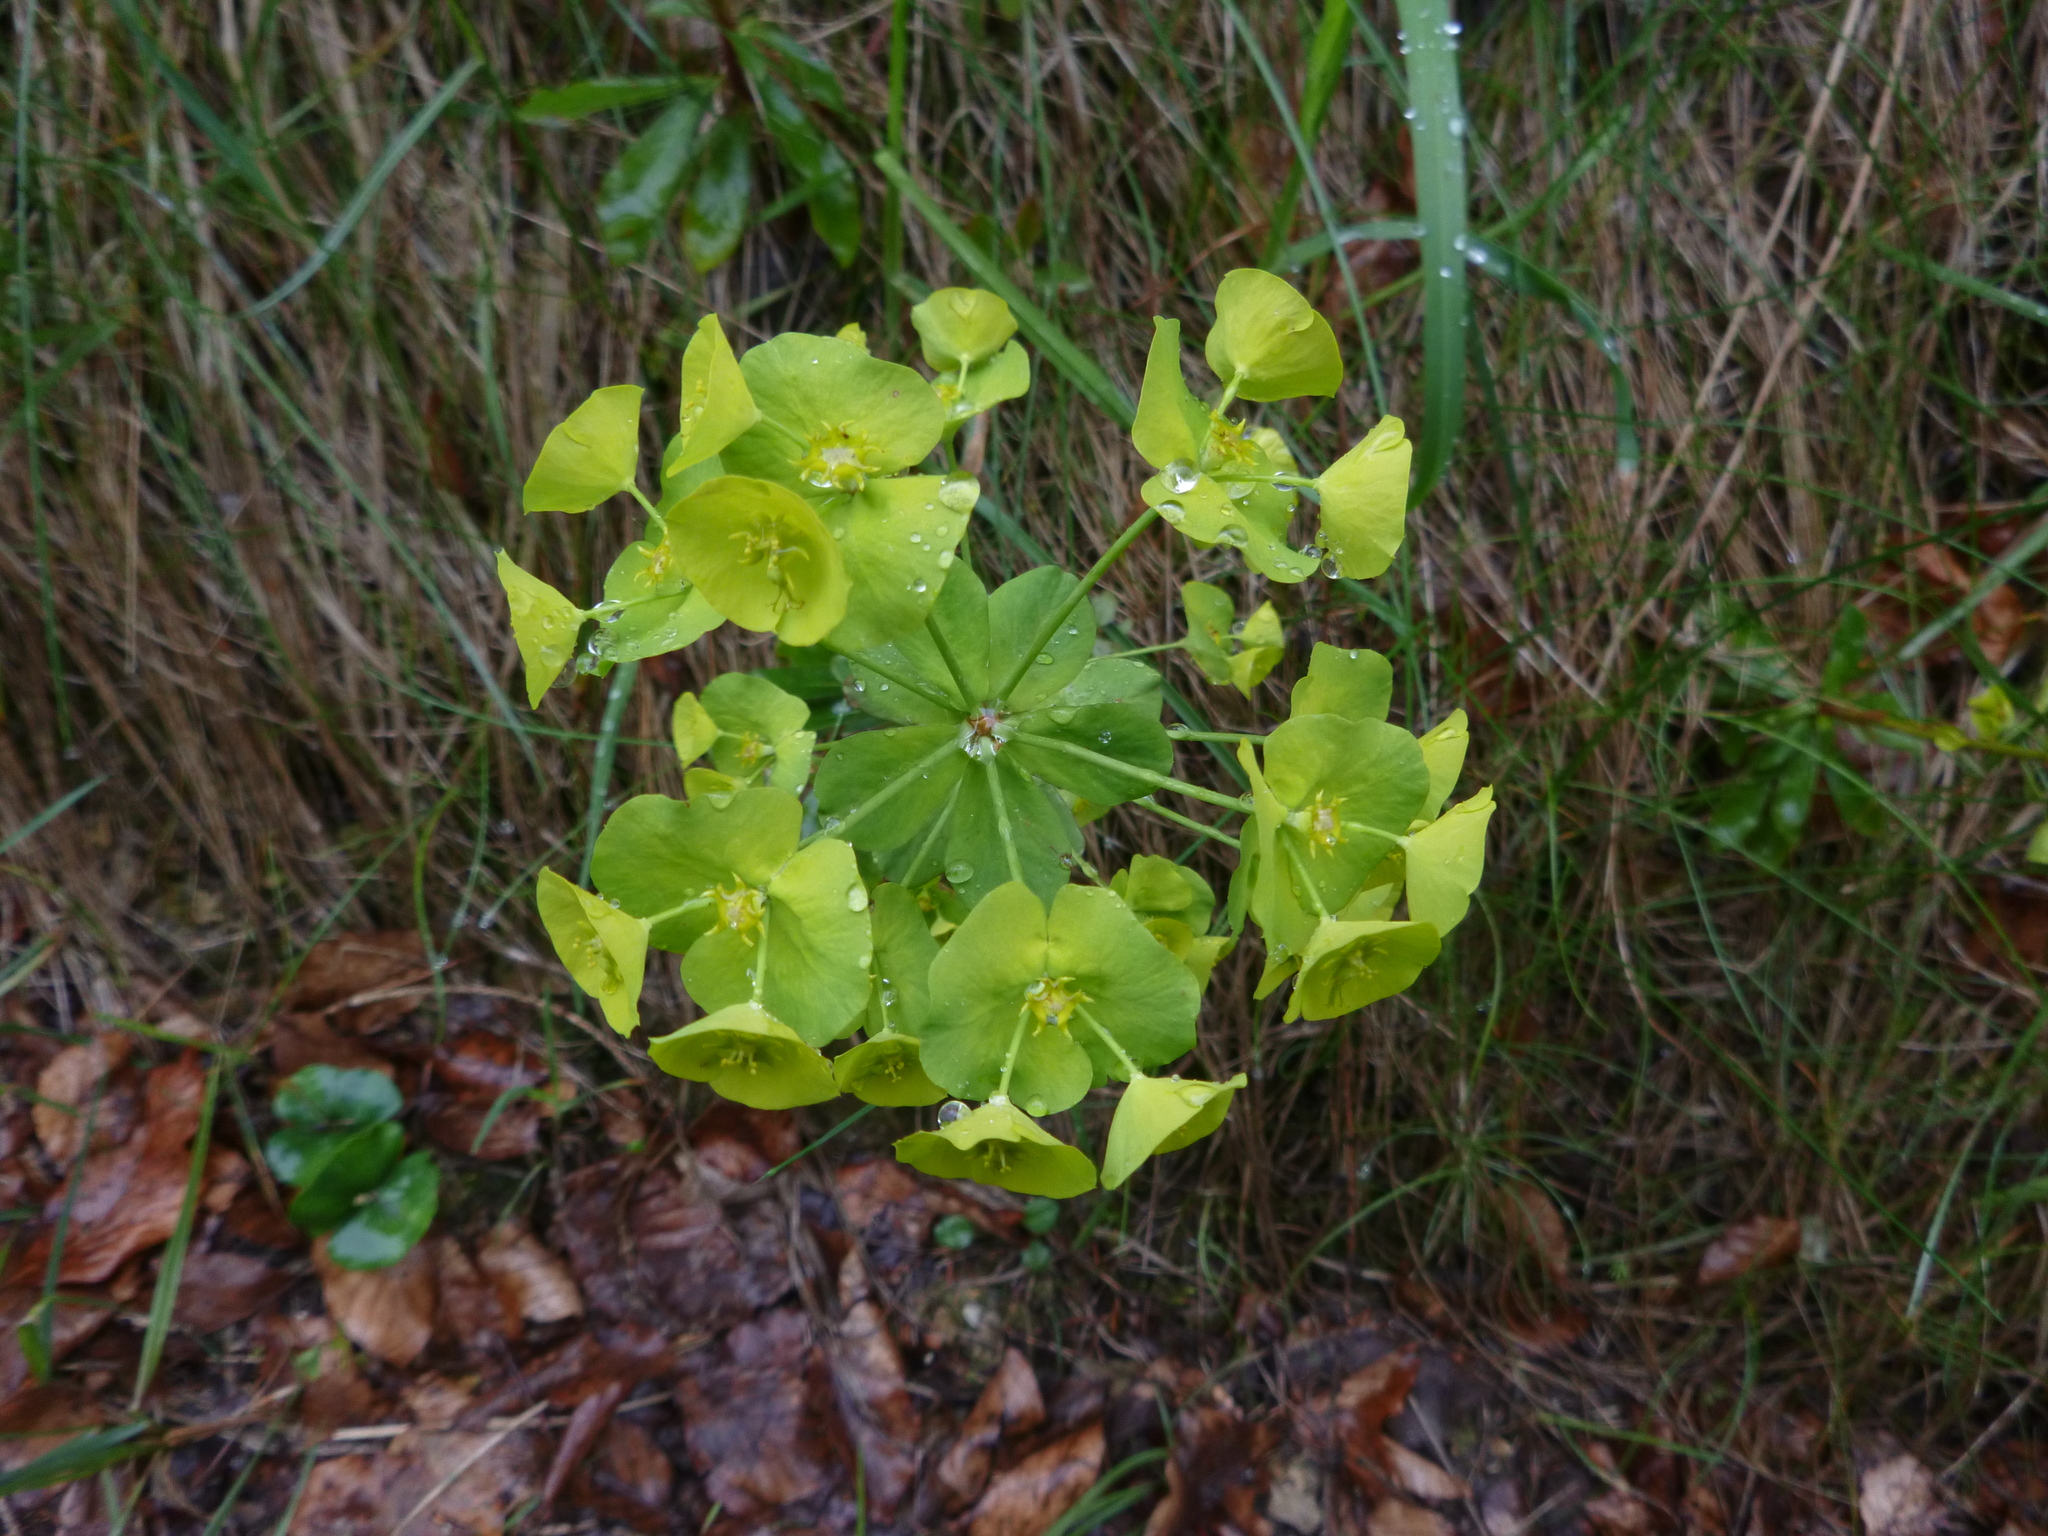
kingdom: Plantae
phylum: Tracheophyta
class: Magnoliopsida
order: Malpighiales
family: Euphorbiaceae
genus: Euphorbia
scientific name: Euphorbia amygdaloides
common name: Wood spurge
